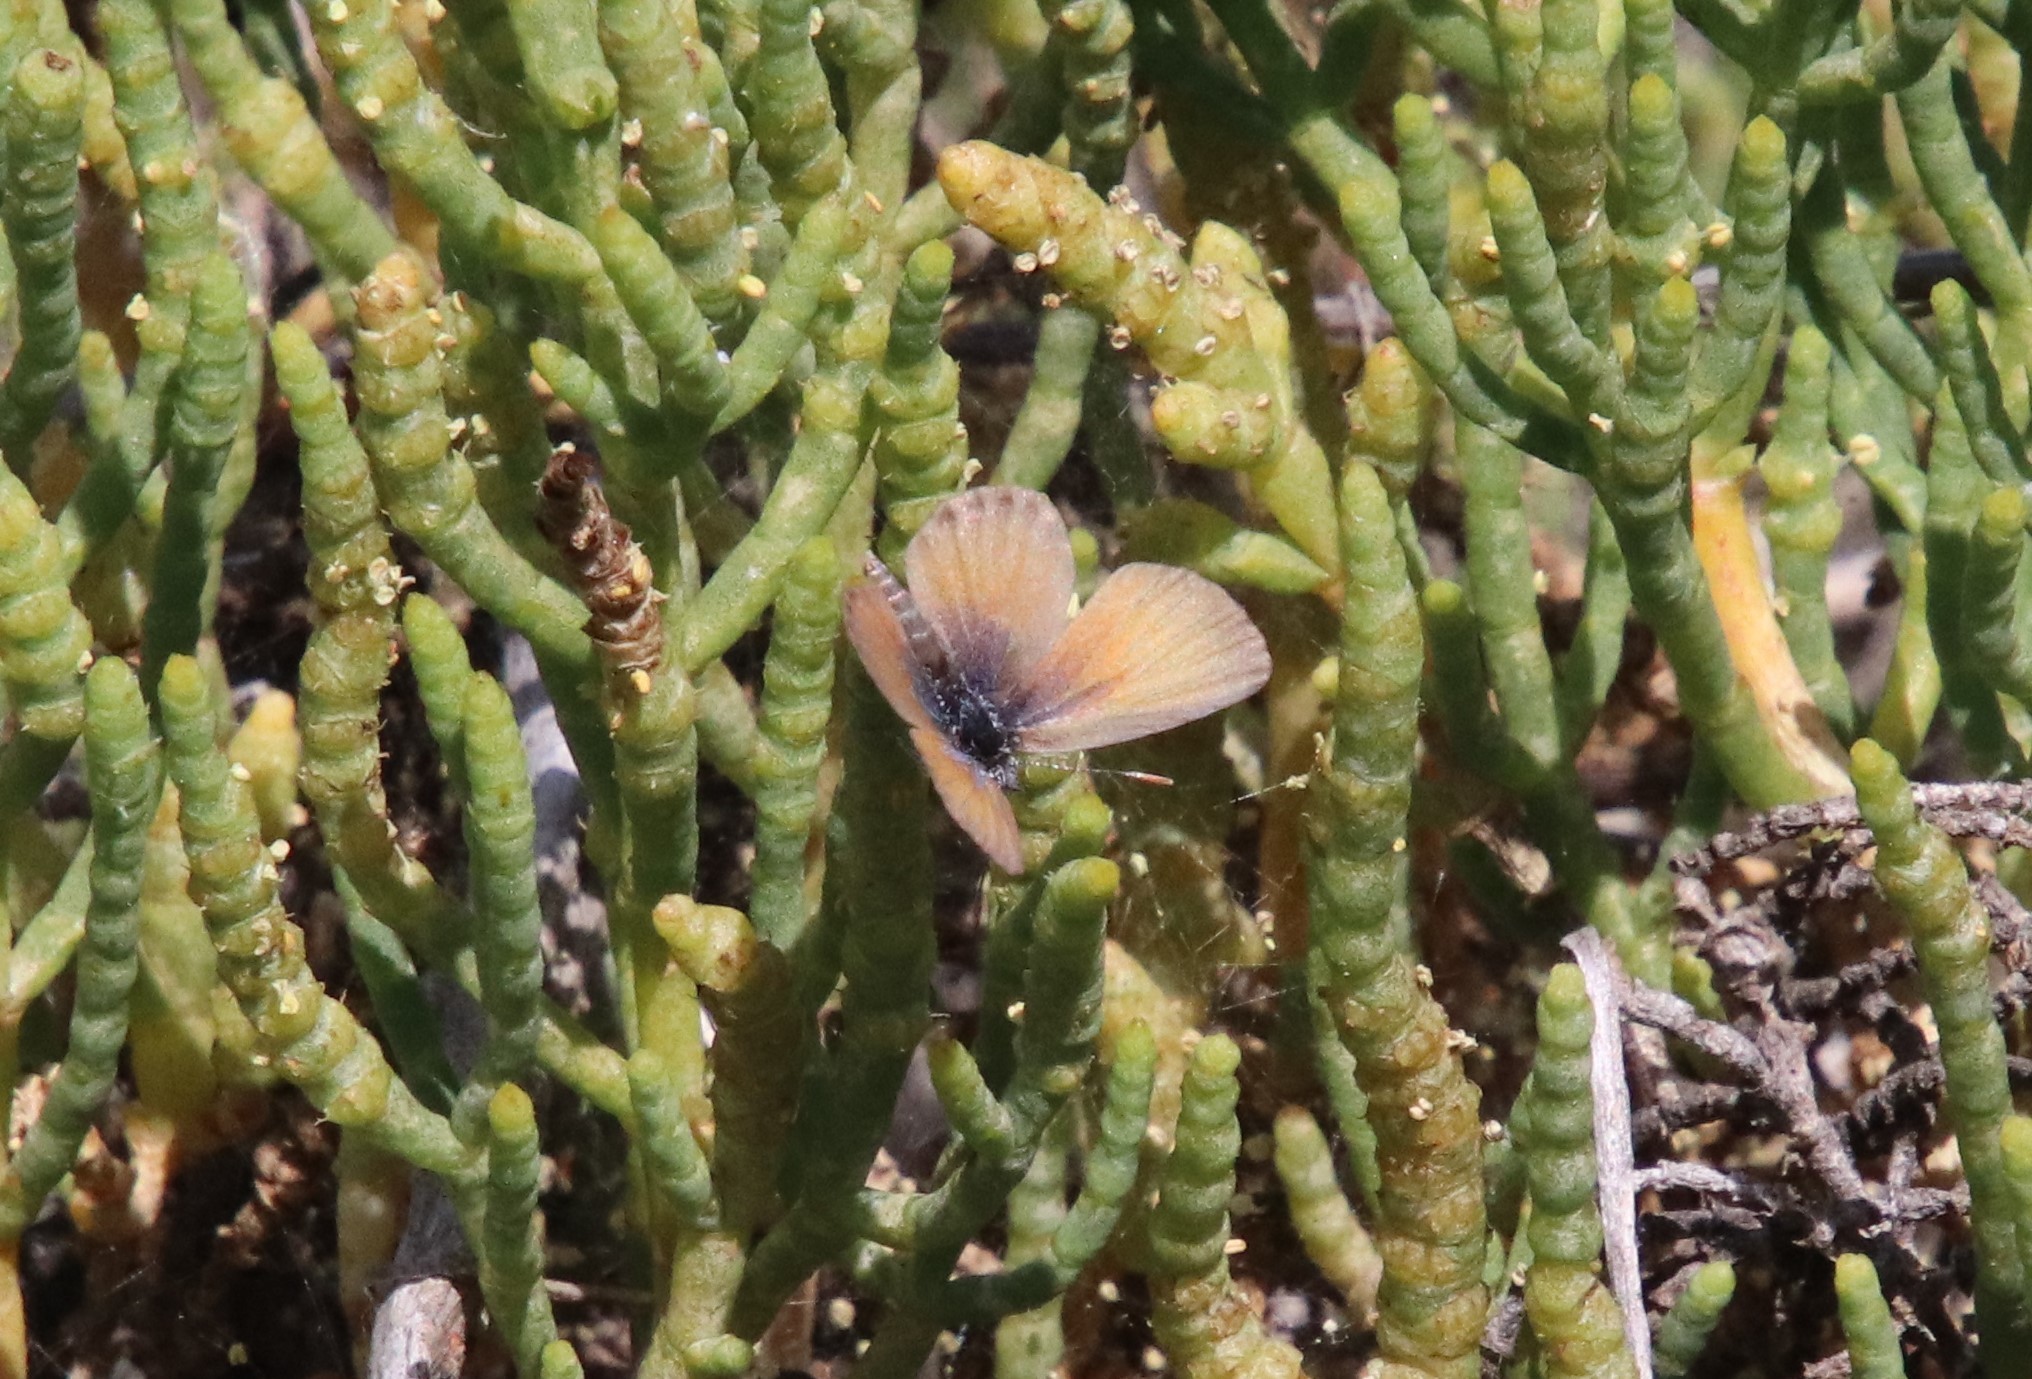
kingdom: Animalia
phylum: Arthropoda
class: Insecta
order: Lepidoptera
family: Lycaenidae
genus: Brephidium
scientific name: Brephidium exilis
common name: Pygmy blue
